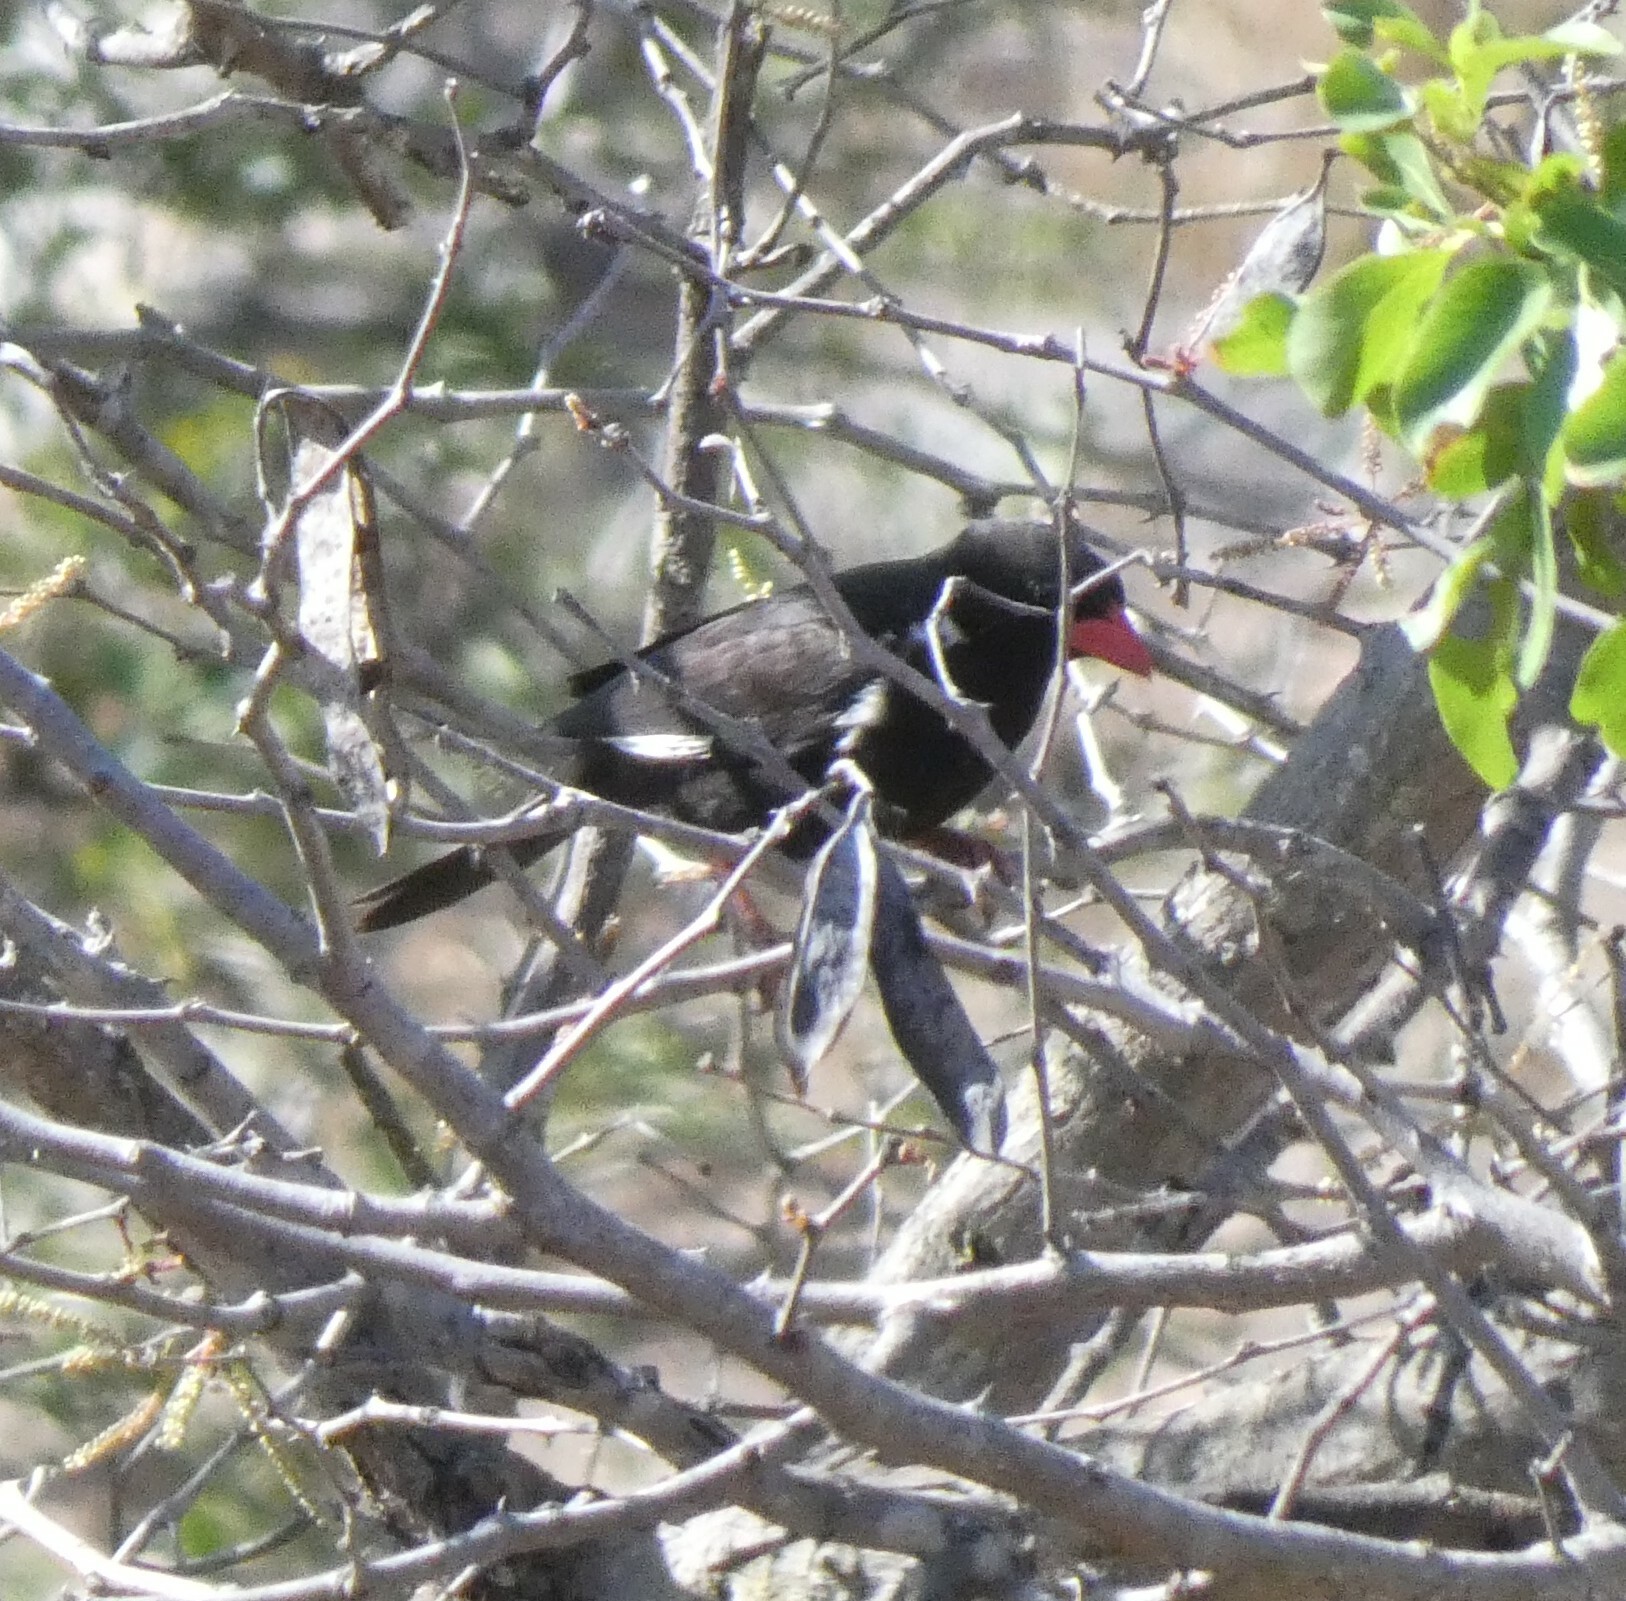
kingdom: Animalia
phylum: Chordata
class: Aves
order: Passeriformes
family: Ploceidae
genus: Bubalornis
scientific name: Bubalornis niger
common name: Red-billed buffalo weaver
